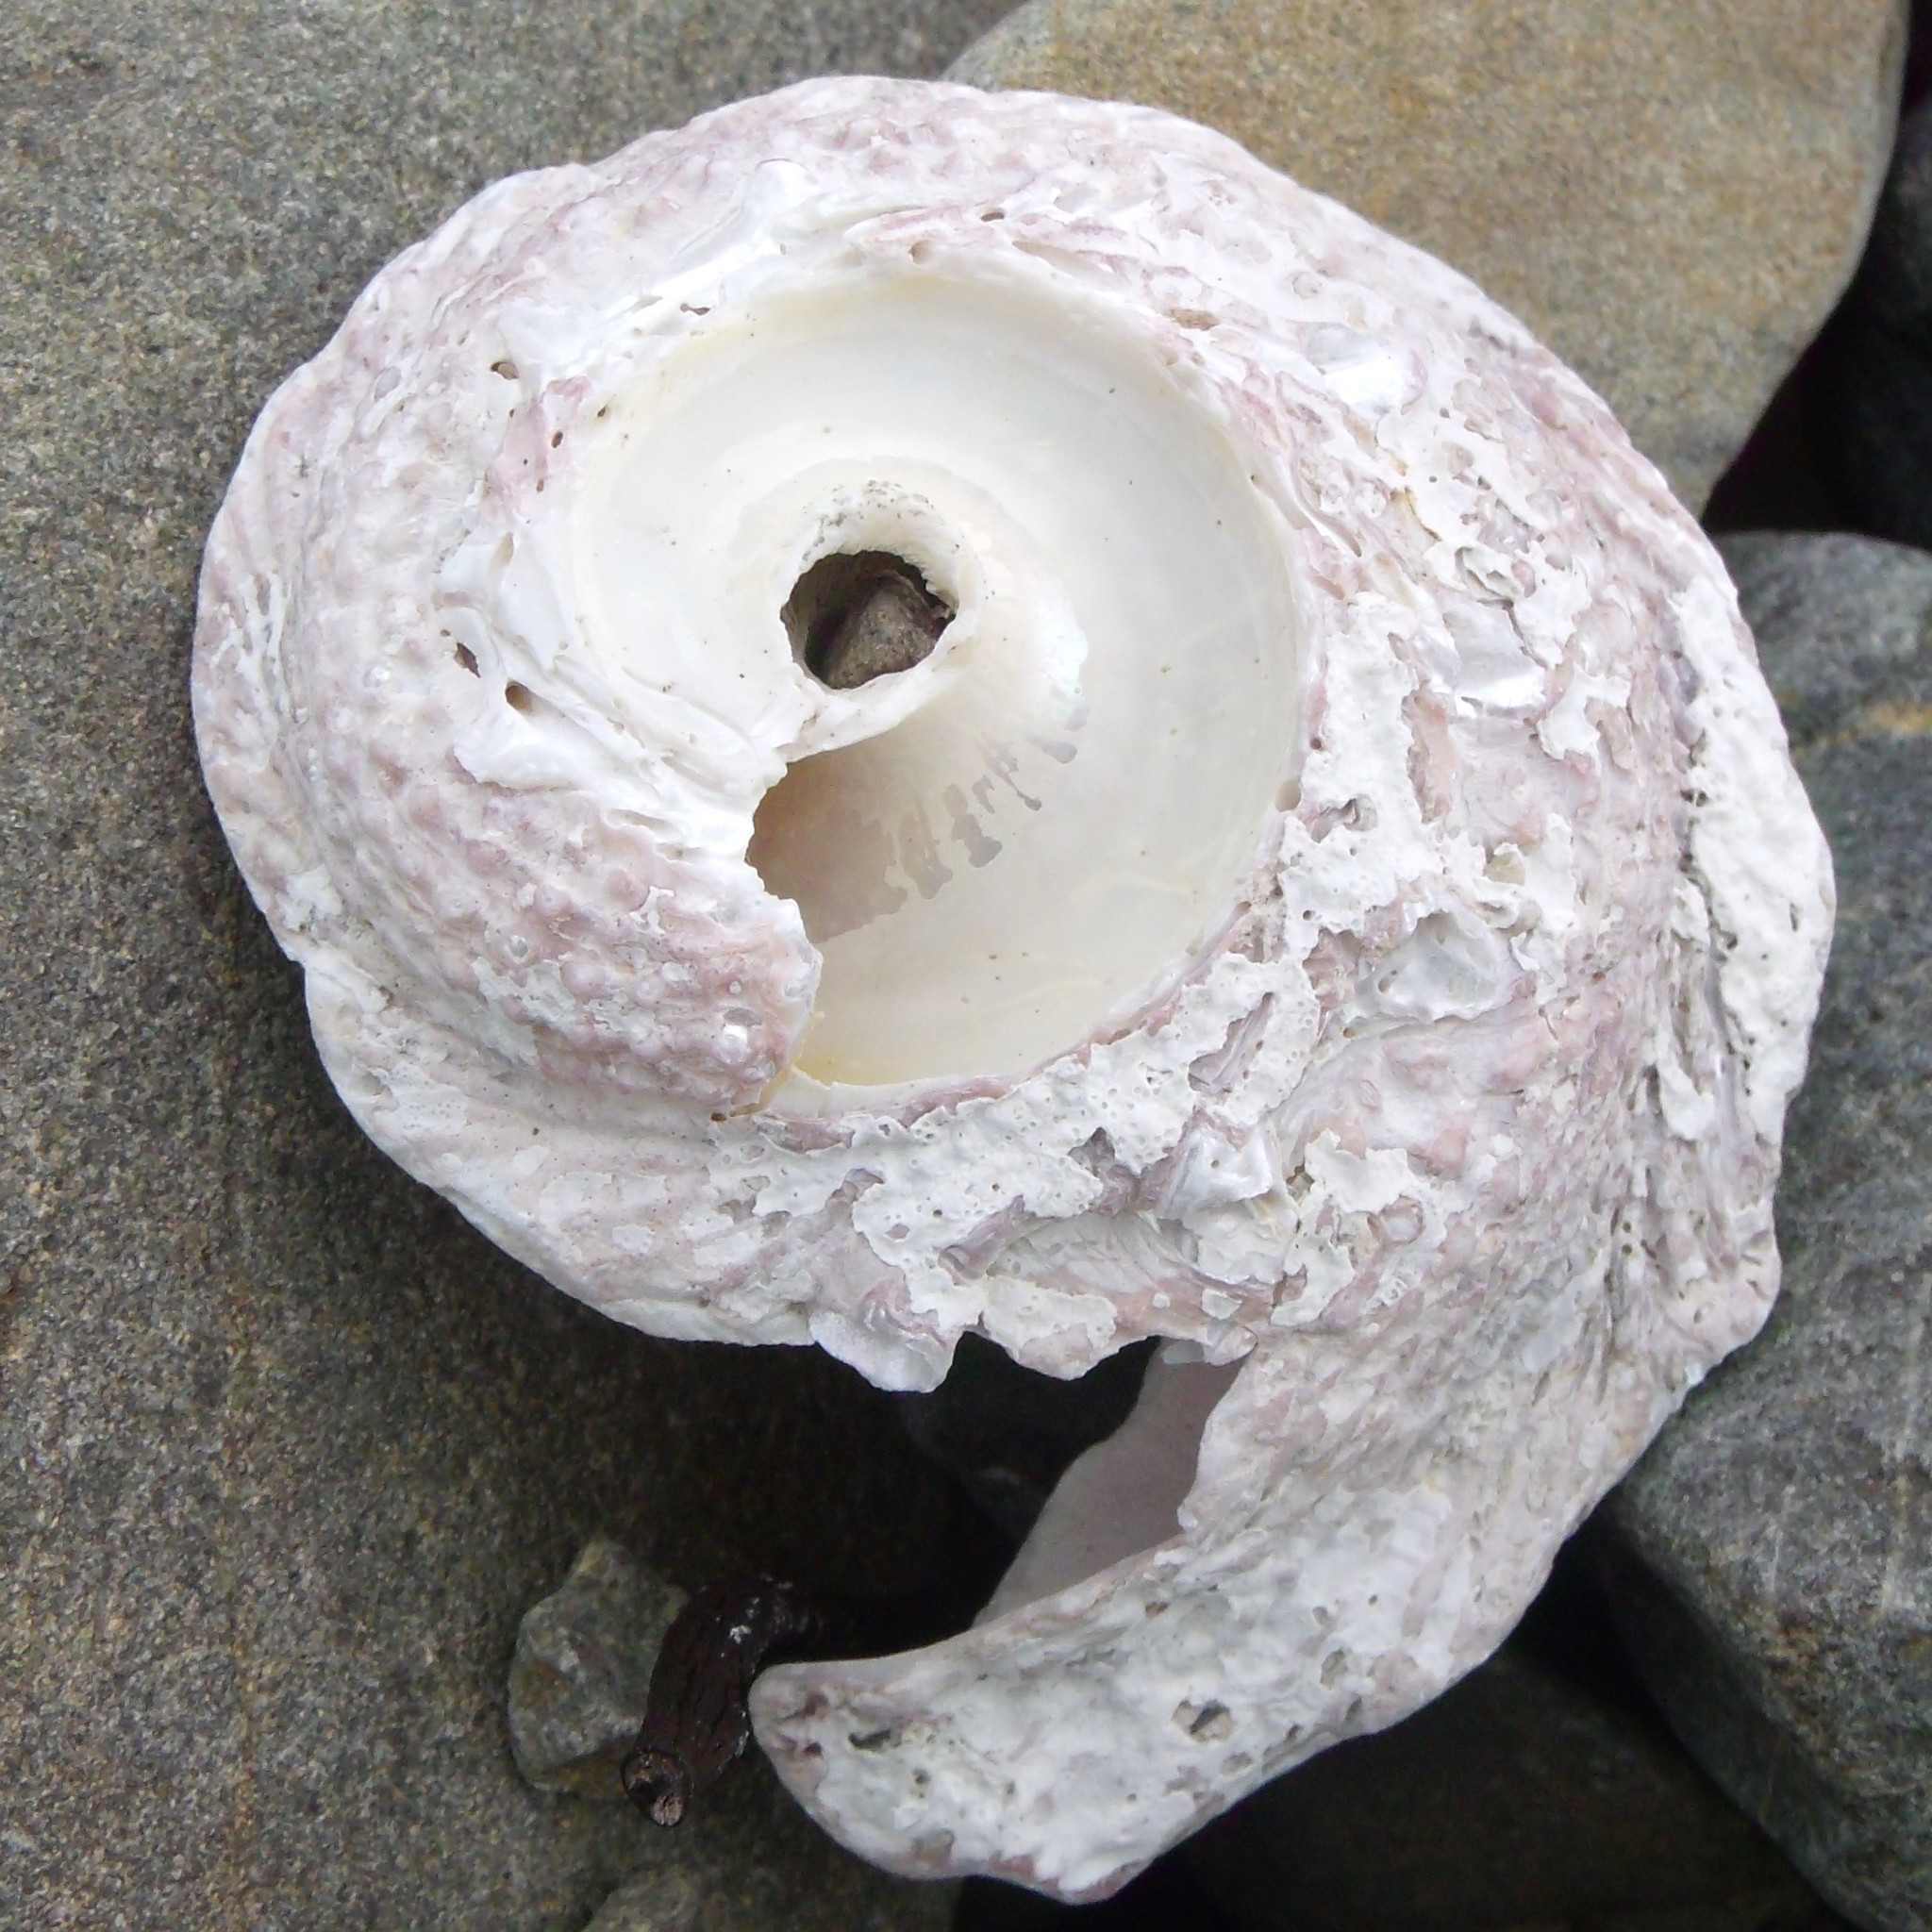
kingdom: Animalia
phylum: Mollusca
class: Gastropoda
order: Trochida
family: Turbinidae
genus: Astraea
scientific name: Astraea heliotropium
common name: Sun shell
